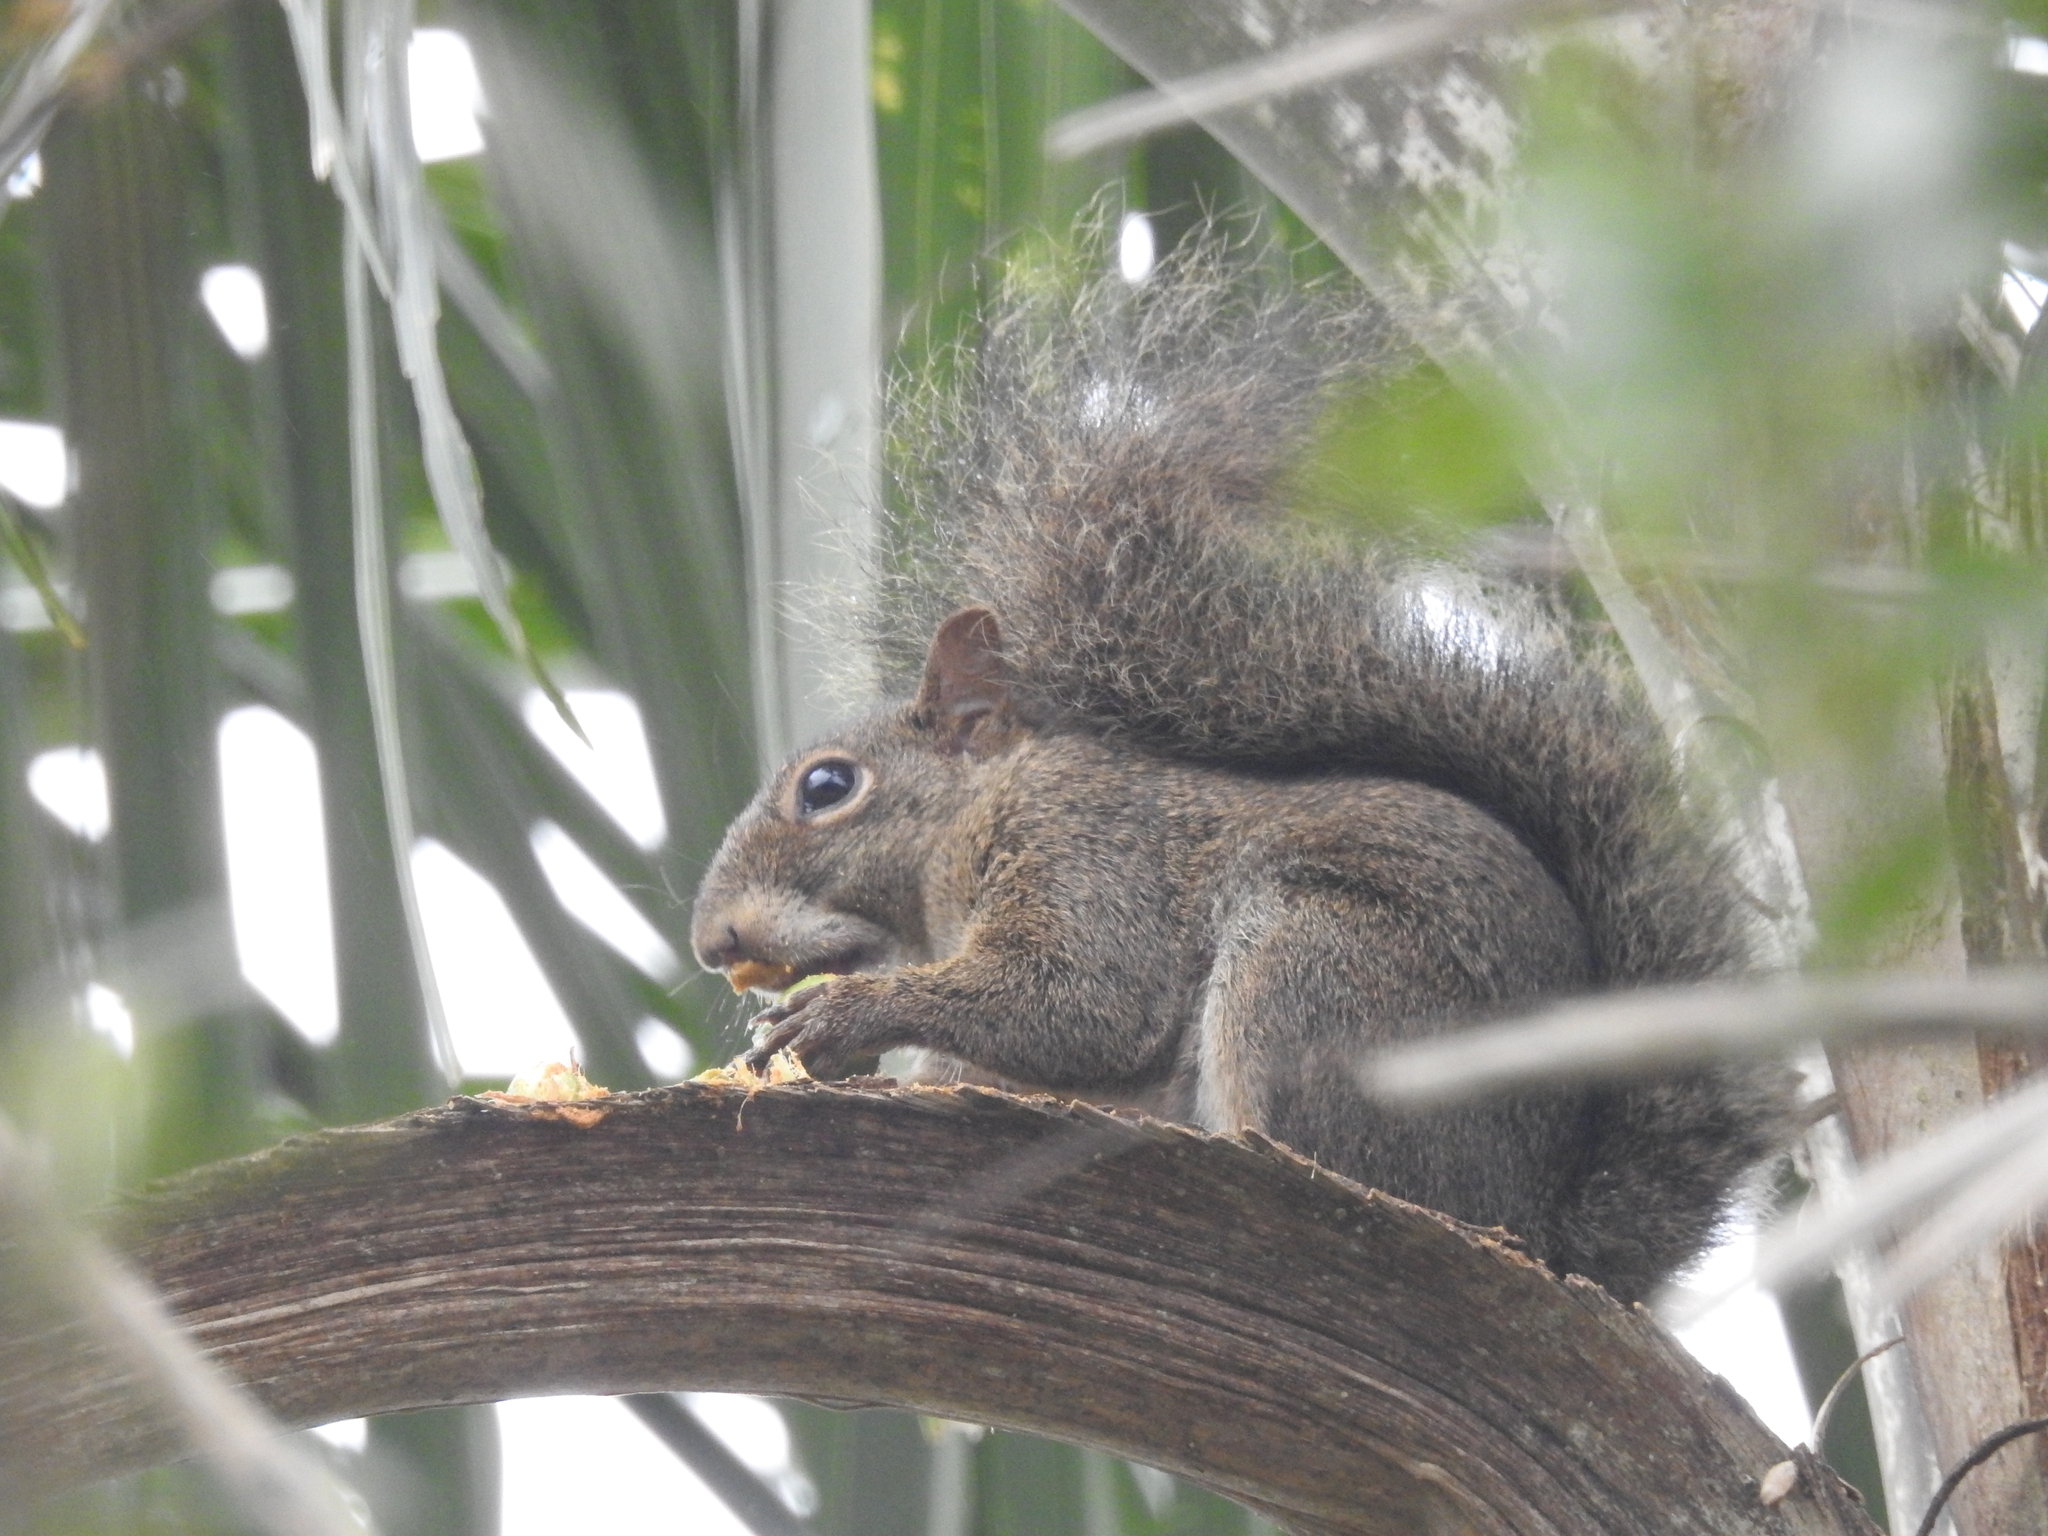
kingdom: Animalia
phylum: Chordata
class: Mammalia
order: Rodentia
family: Sciuridae
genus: Sciurus
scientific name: Sciurus aestuans
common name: Guianan squirrel
